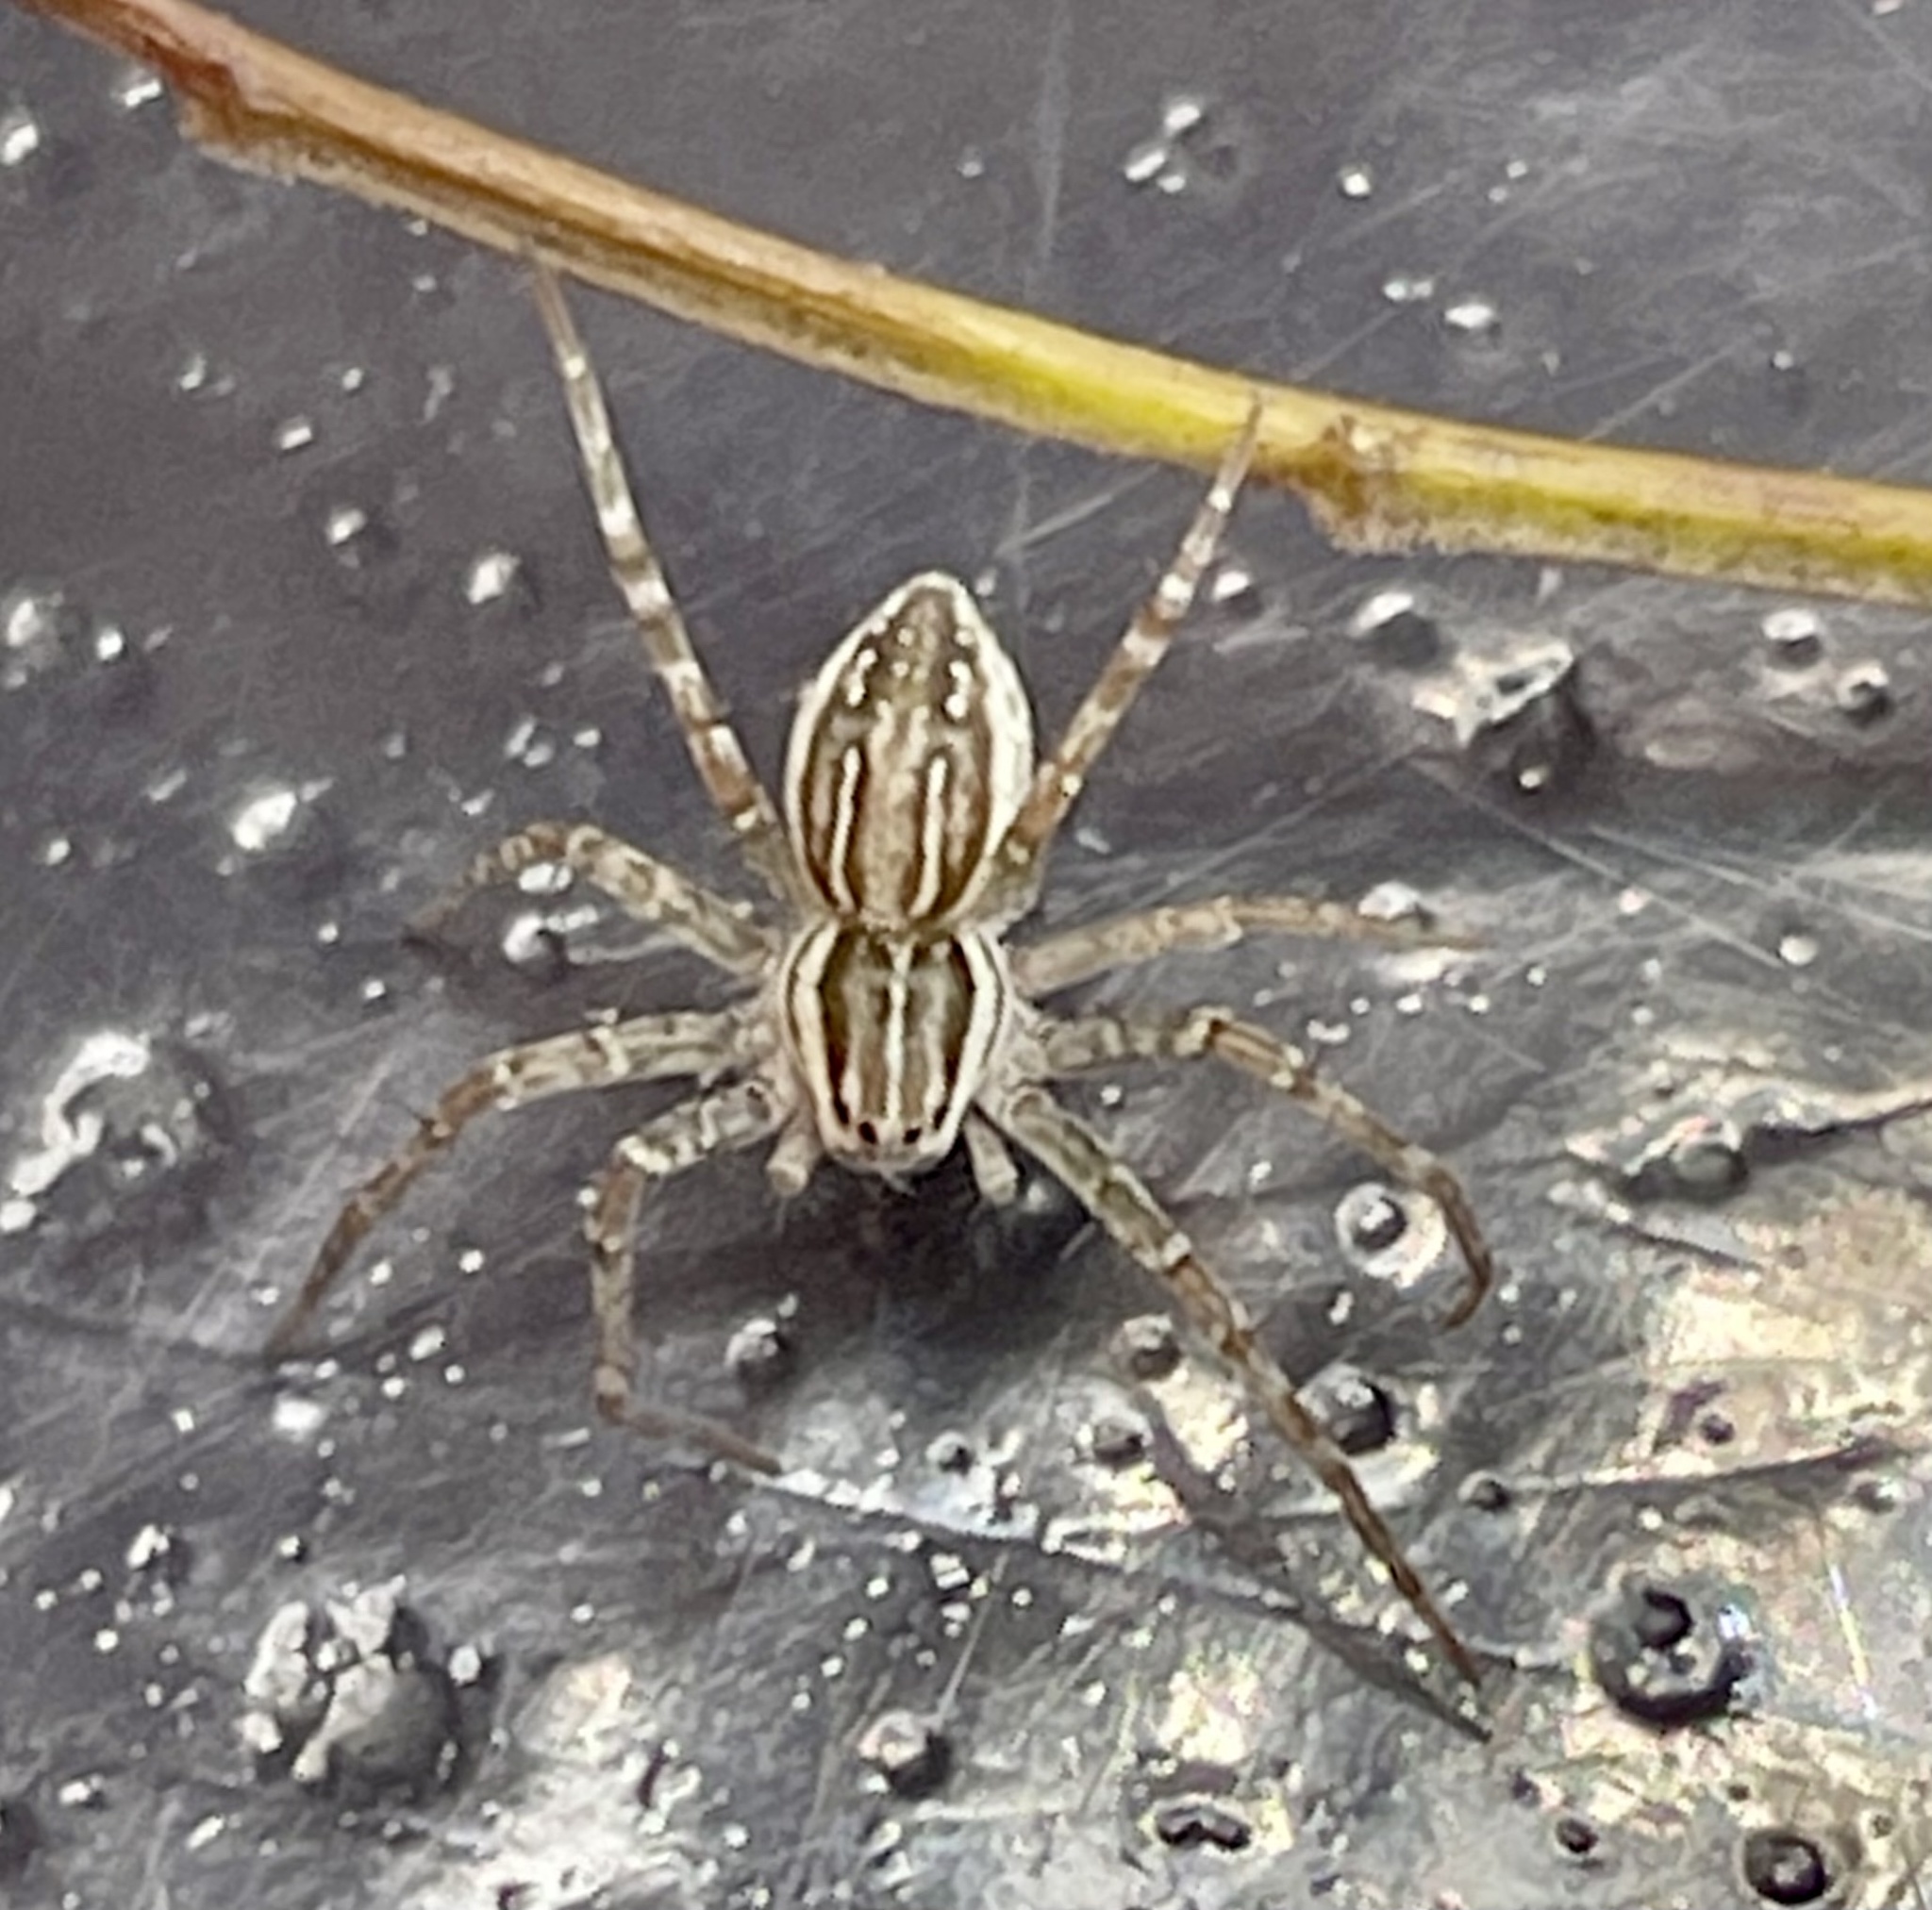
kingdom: Animalia
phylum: Arthropoda
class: Arachnida
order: Araneae
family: Pisauridae
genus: Dolomedes
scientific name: Dolomedes facetus
